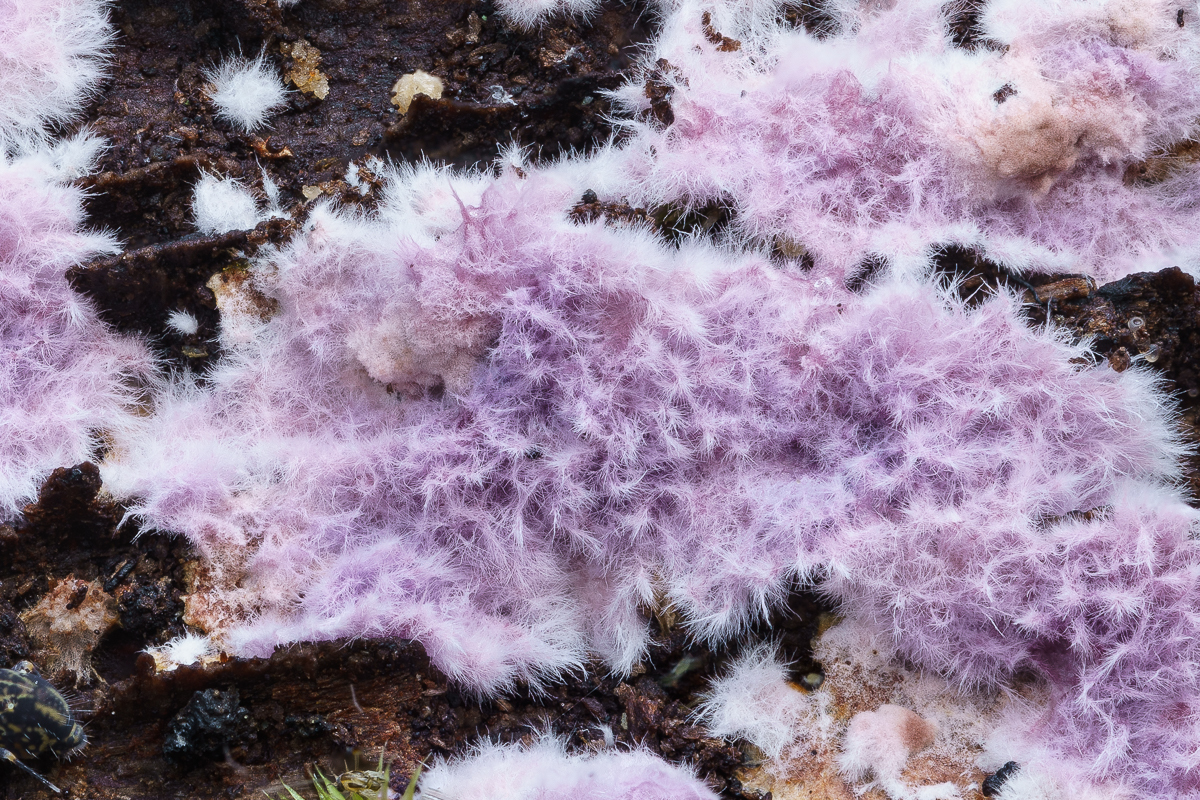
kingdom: Fungi
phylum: Basidiomycota
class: Agaricomycetes
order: Corticiales
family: Punctulariaceae
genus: Punctularia
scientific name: Punctularia atropurpurascens
